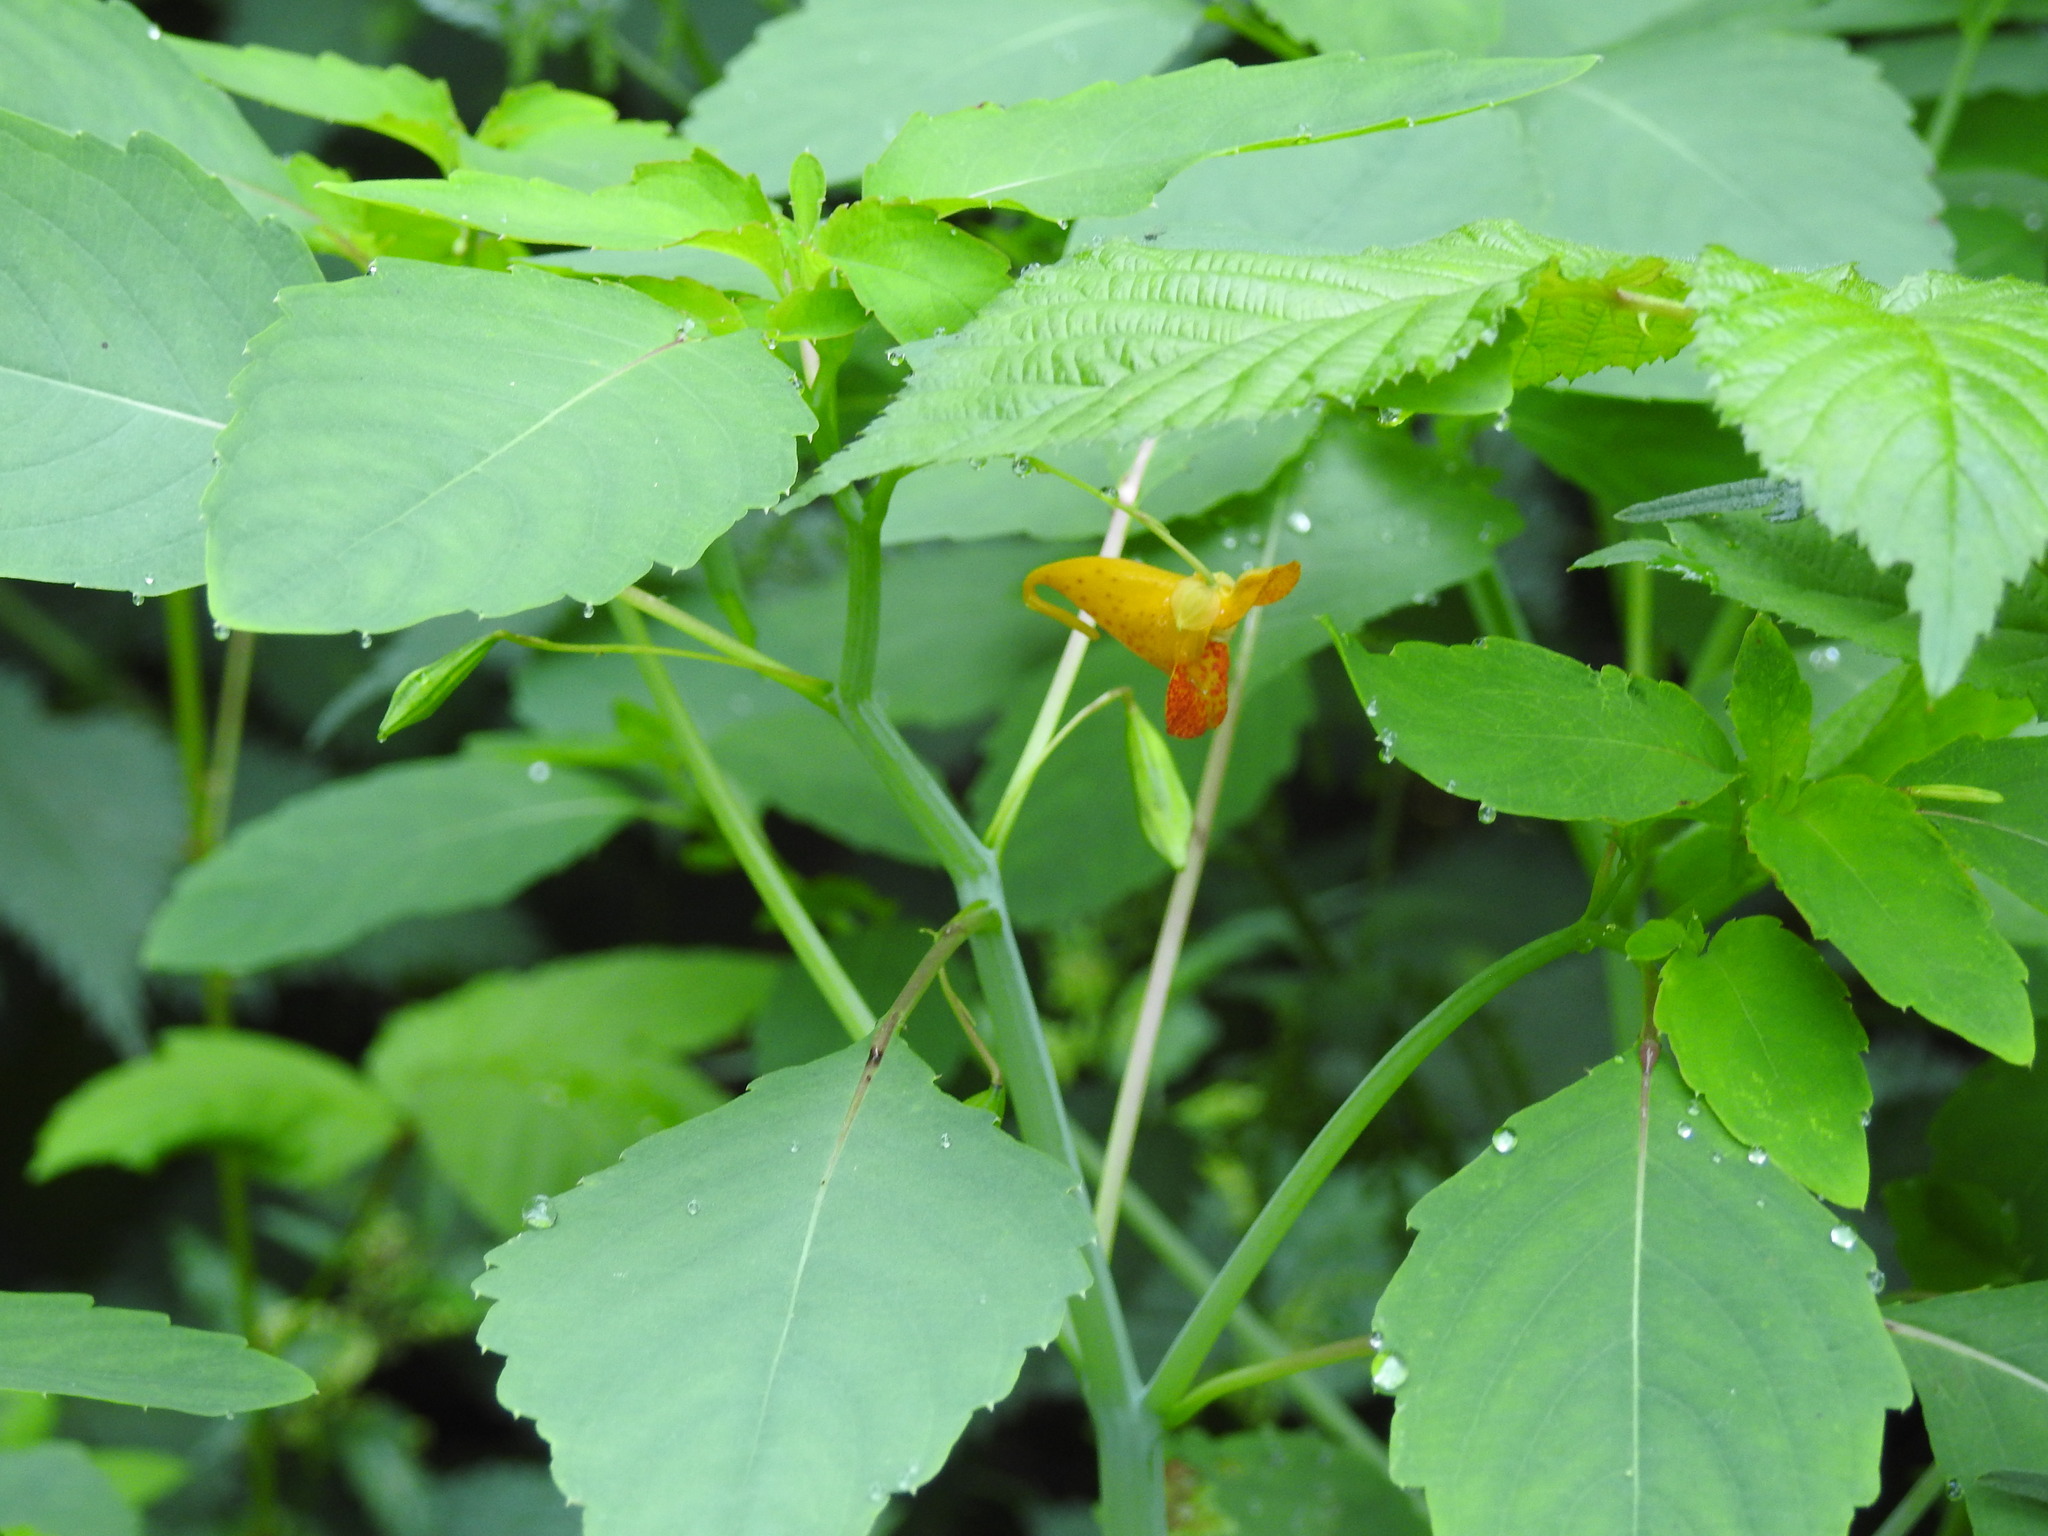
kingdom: Plantae
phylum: Tracheophyta
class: Magnoliopsida
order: Ericales
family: Balsaminaceae
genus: Impatiens
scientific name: Impatiens capensis
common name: Orange balsam
